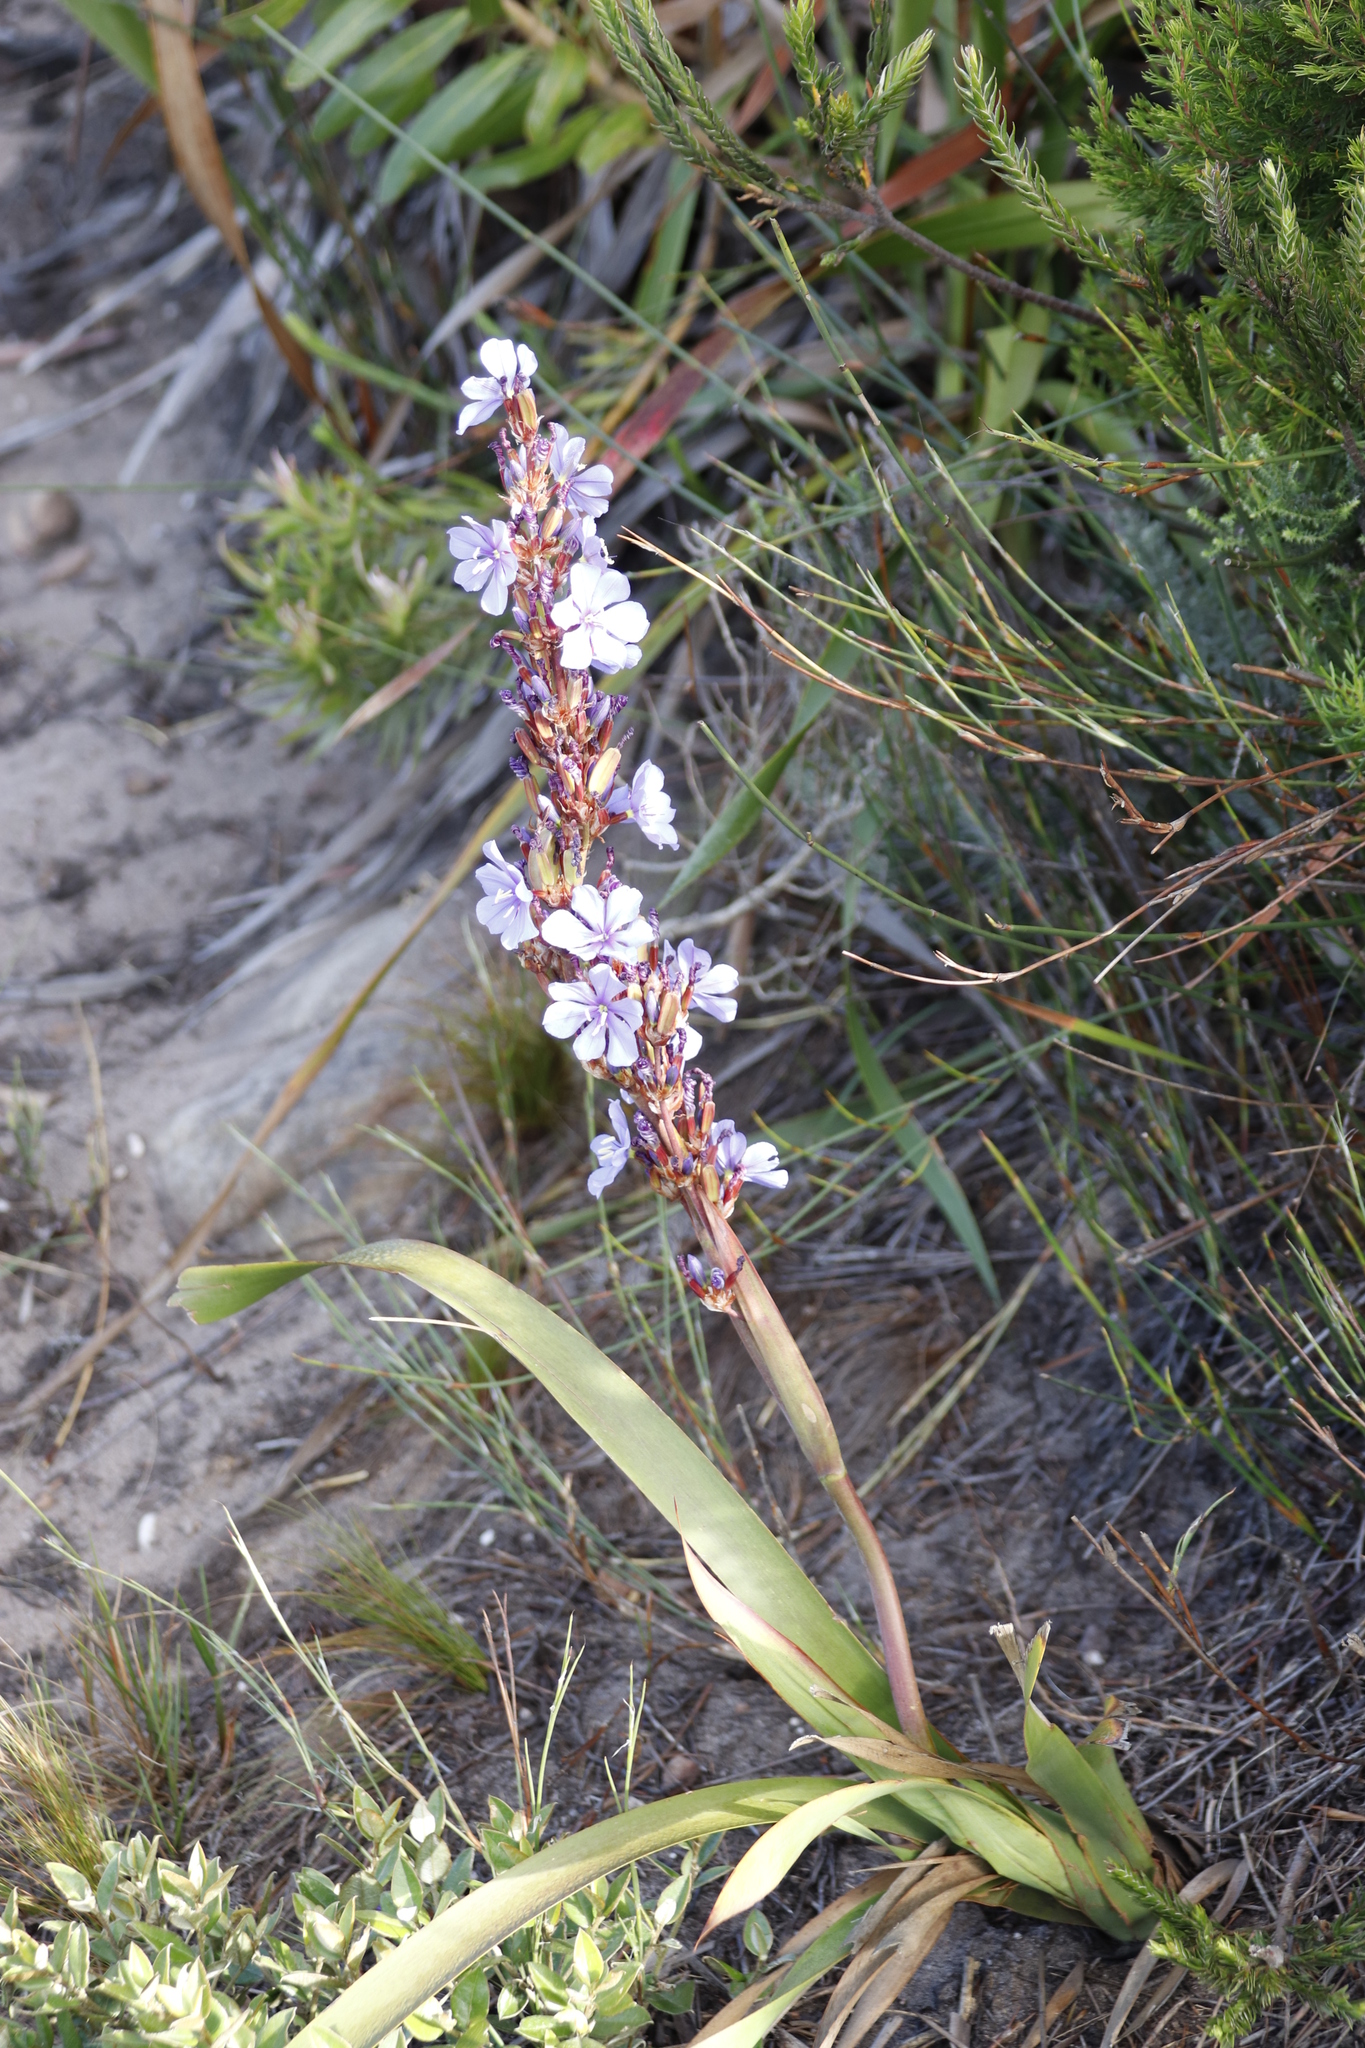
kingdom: Plantae
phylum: Tracheophyta
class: Liliopsida
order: Asparagales
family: Iridaceae
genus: Aristea
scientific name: Aristea capitata
